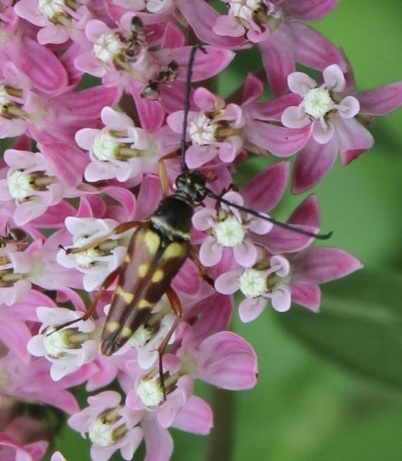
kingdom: Animalia
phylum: Arthropoda
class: Insecta
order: Coleoptera
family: Cerambycidae
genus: Typocerus
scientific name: Typocerus velutinus
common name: Banded longhorn beetle
